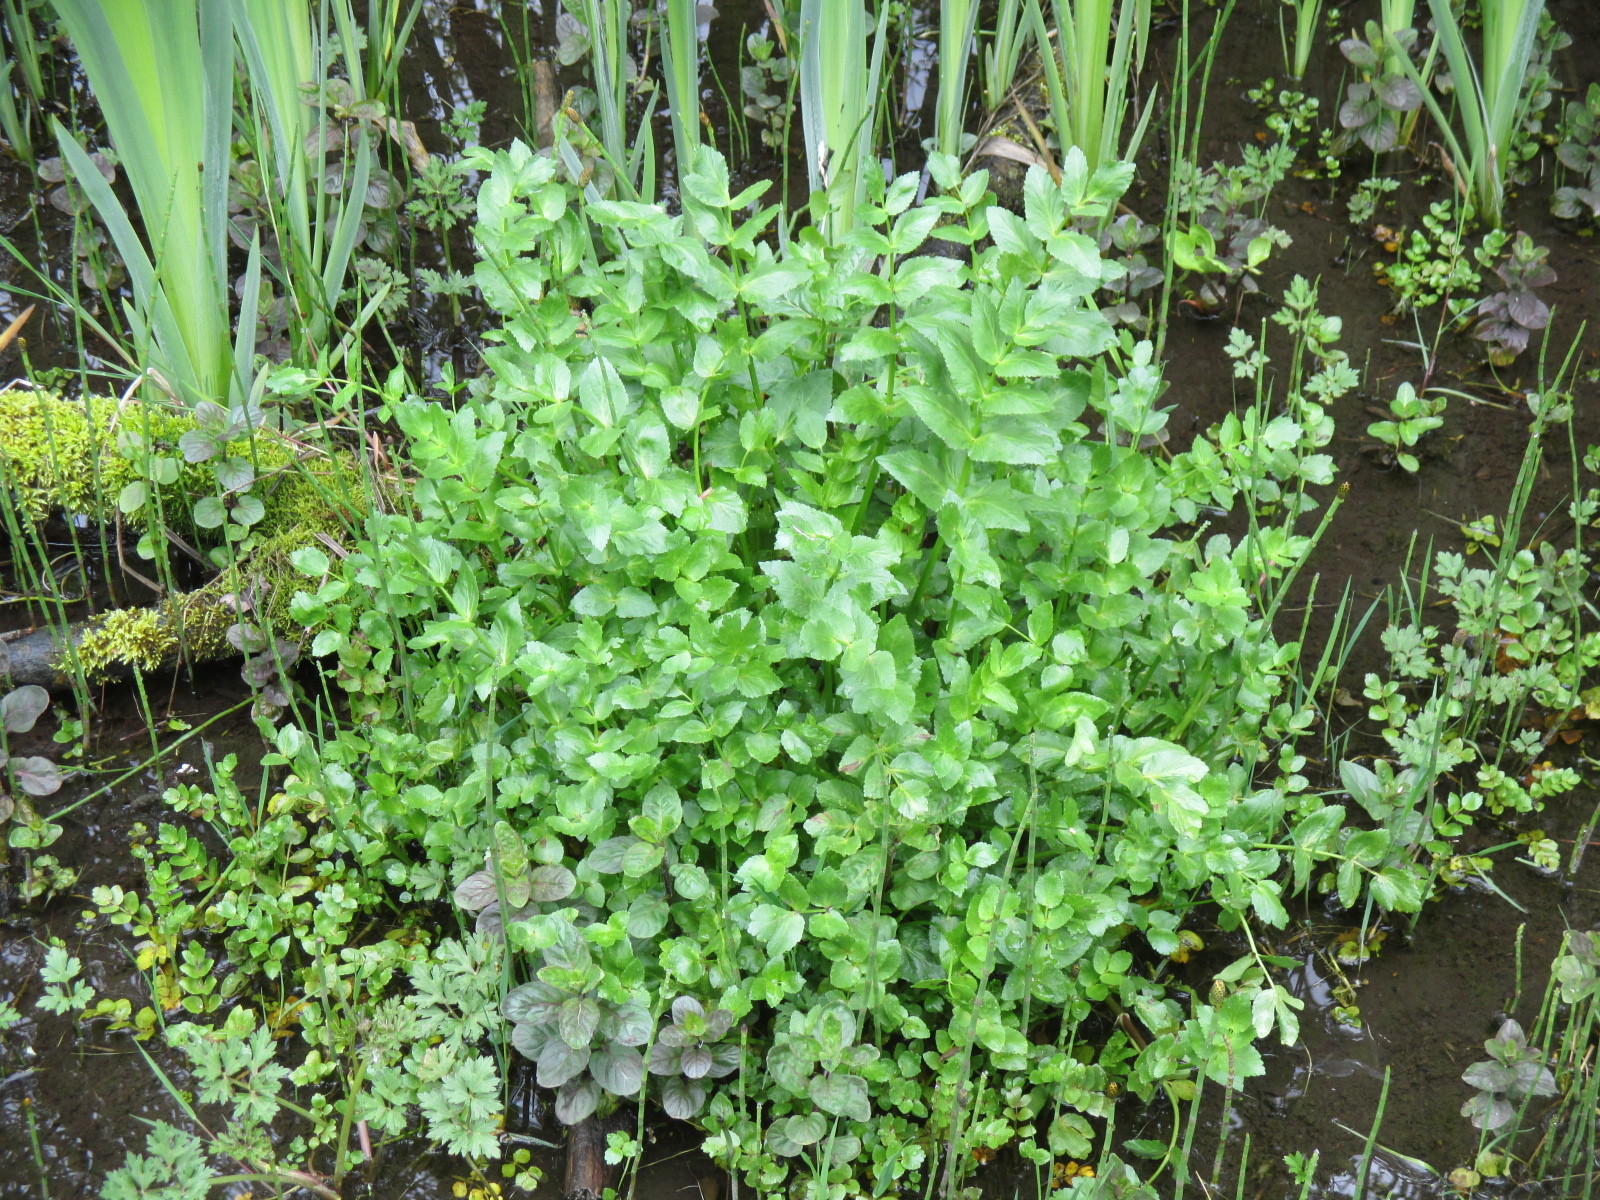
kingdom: Plantae
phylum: Tracheophyta
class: Magnoliopsida
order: Apiales
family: Apiaceae
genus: Helosciadium
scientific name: Helosciadium nodiflorum
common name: Fool's-watercress
